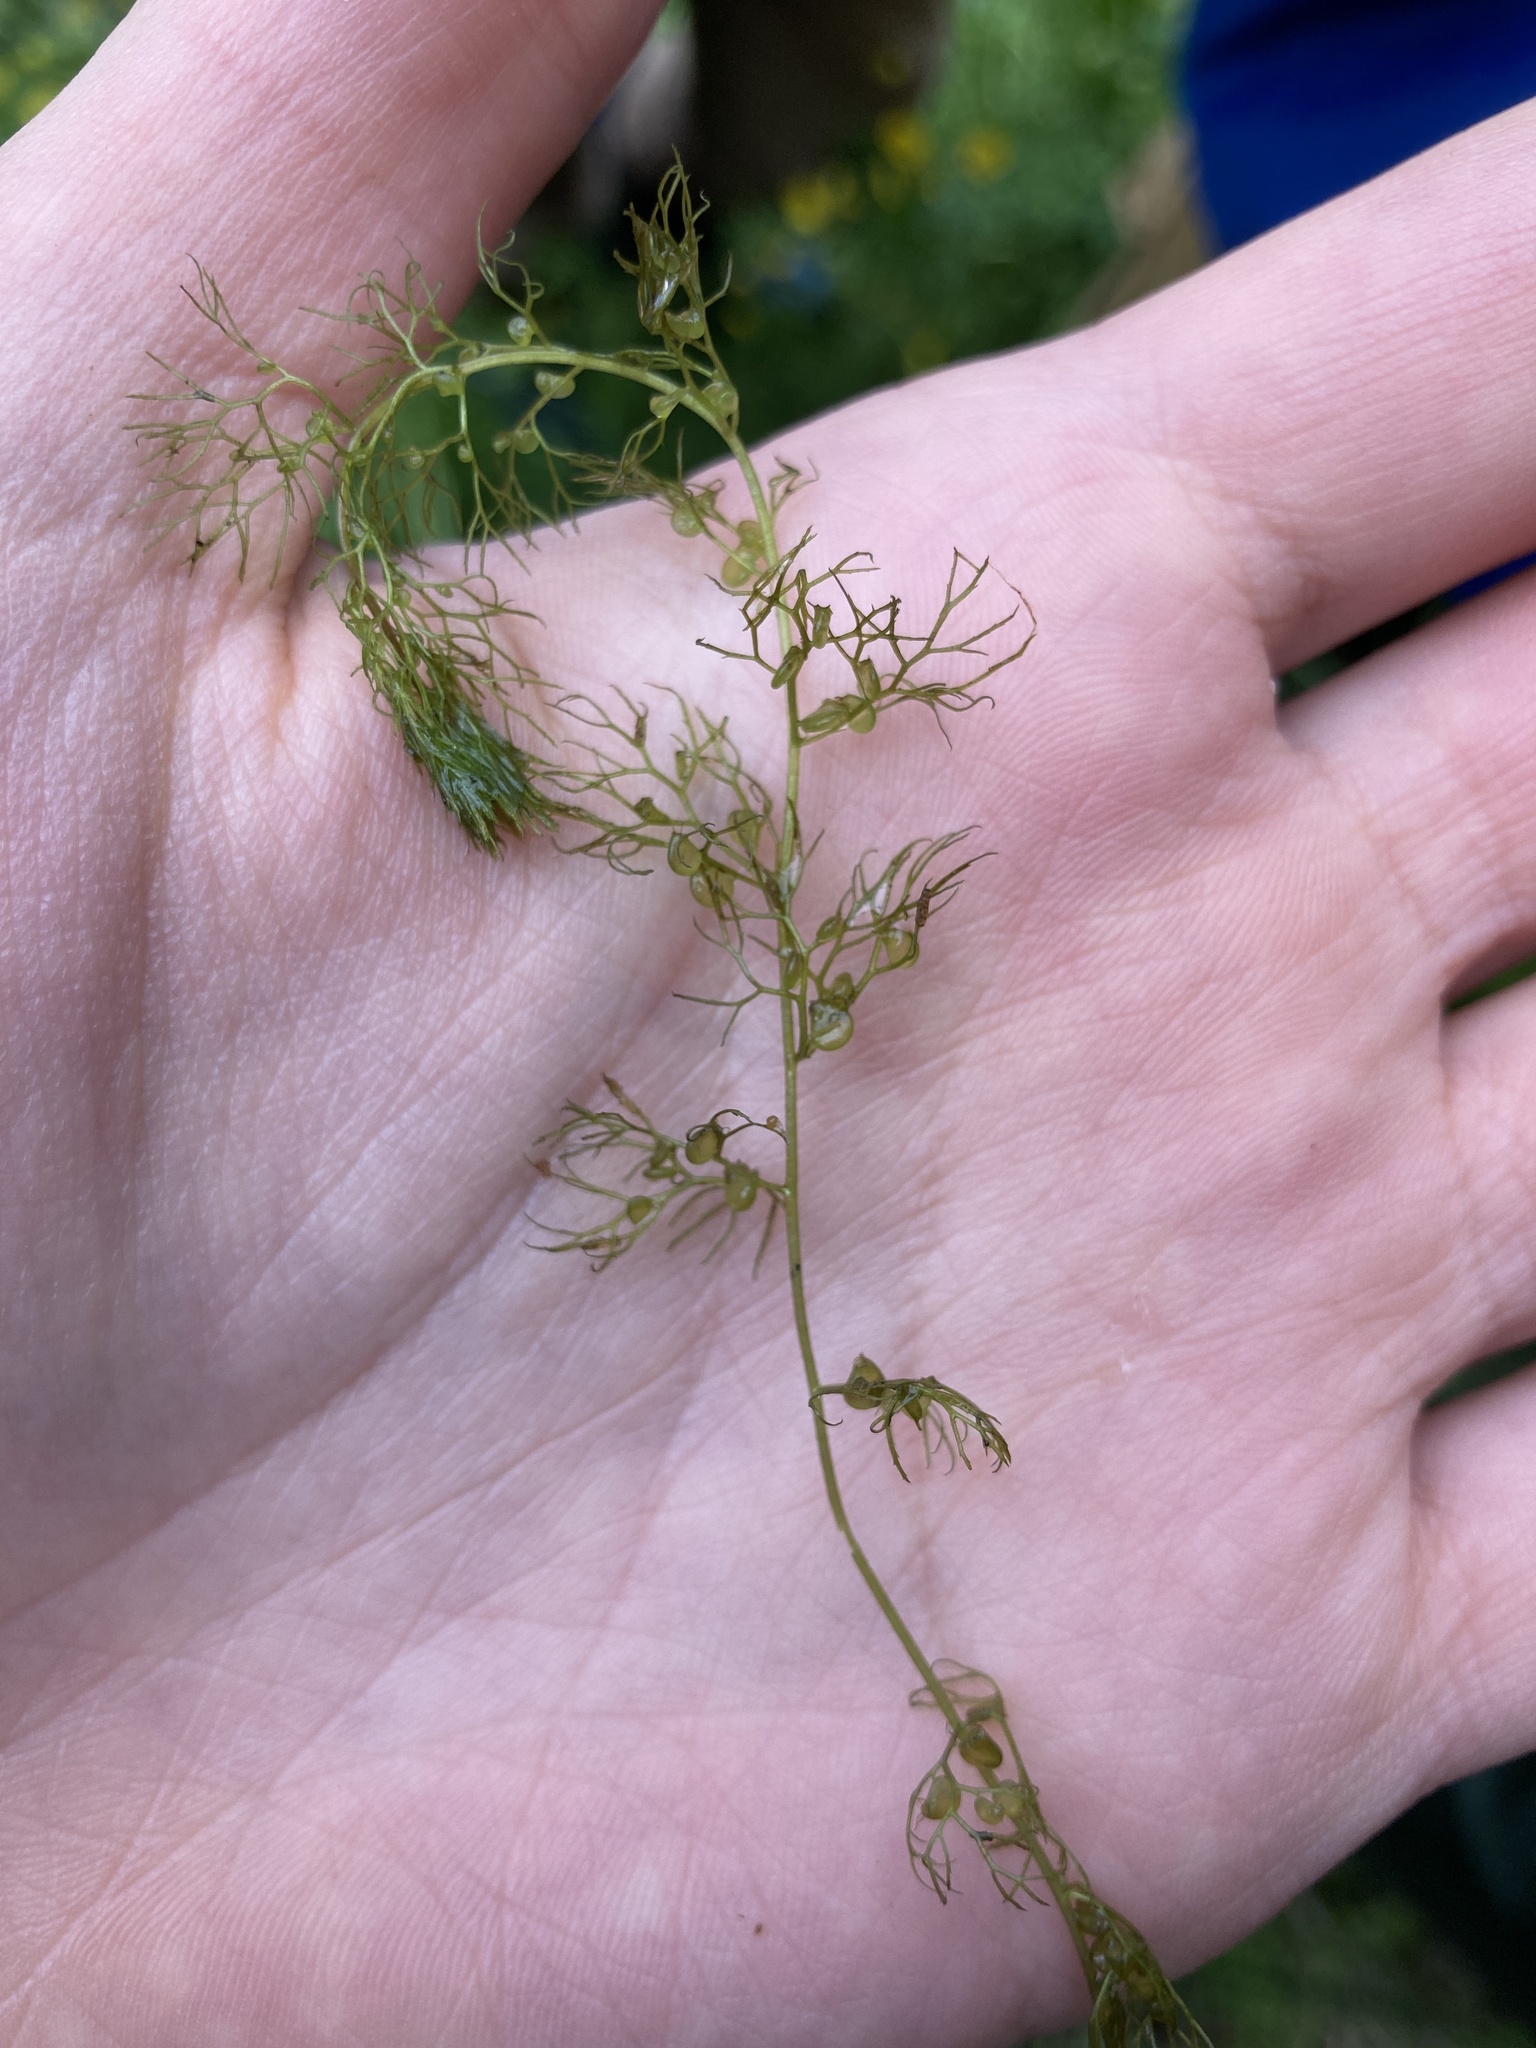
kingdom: Plantae
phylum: Tracheophyta
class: Magnoliopsida
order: Lamiales
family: Lentibulariaceae
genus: Utricularia
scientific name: Utricularia
